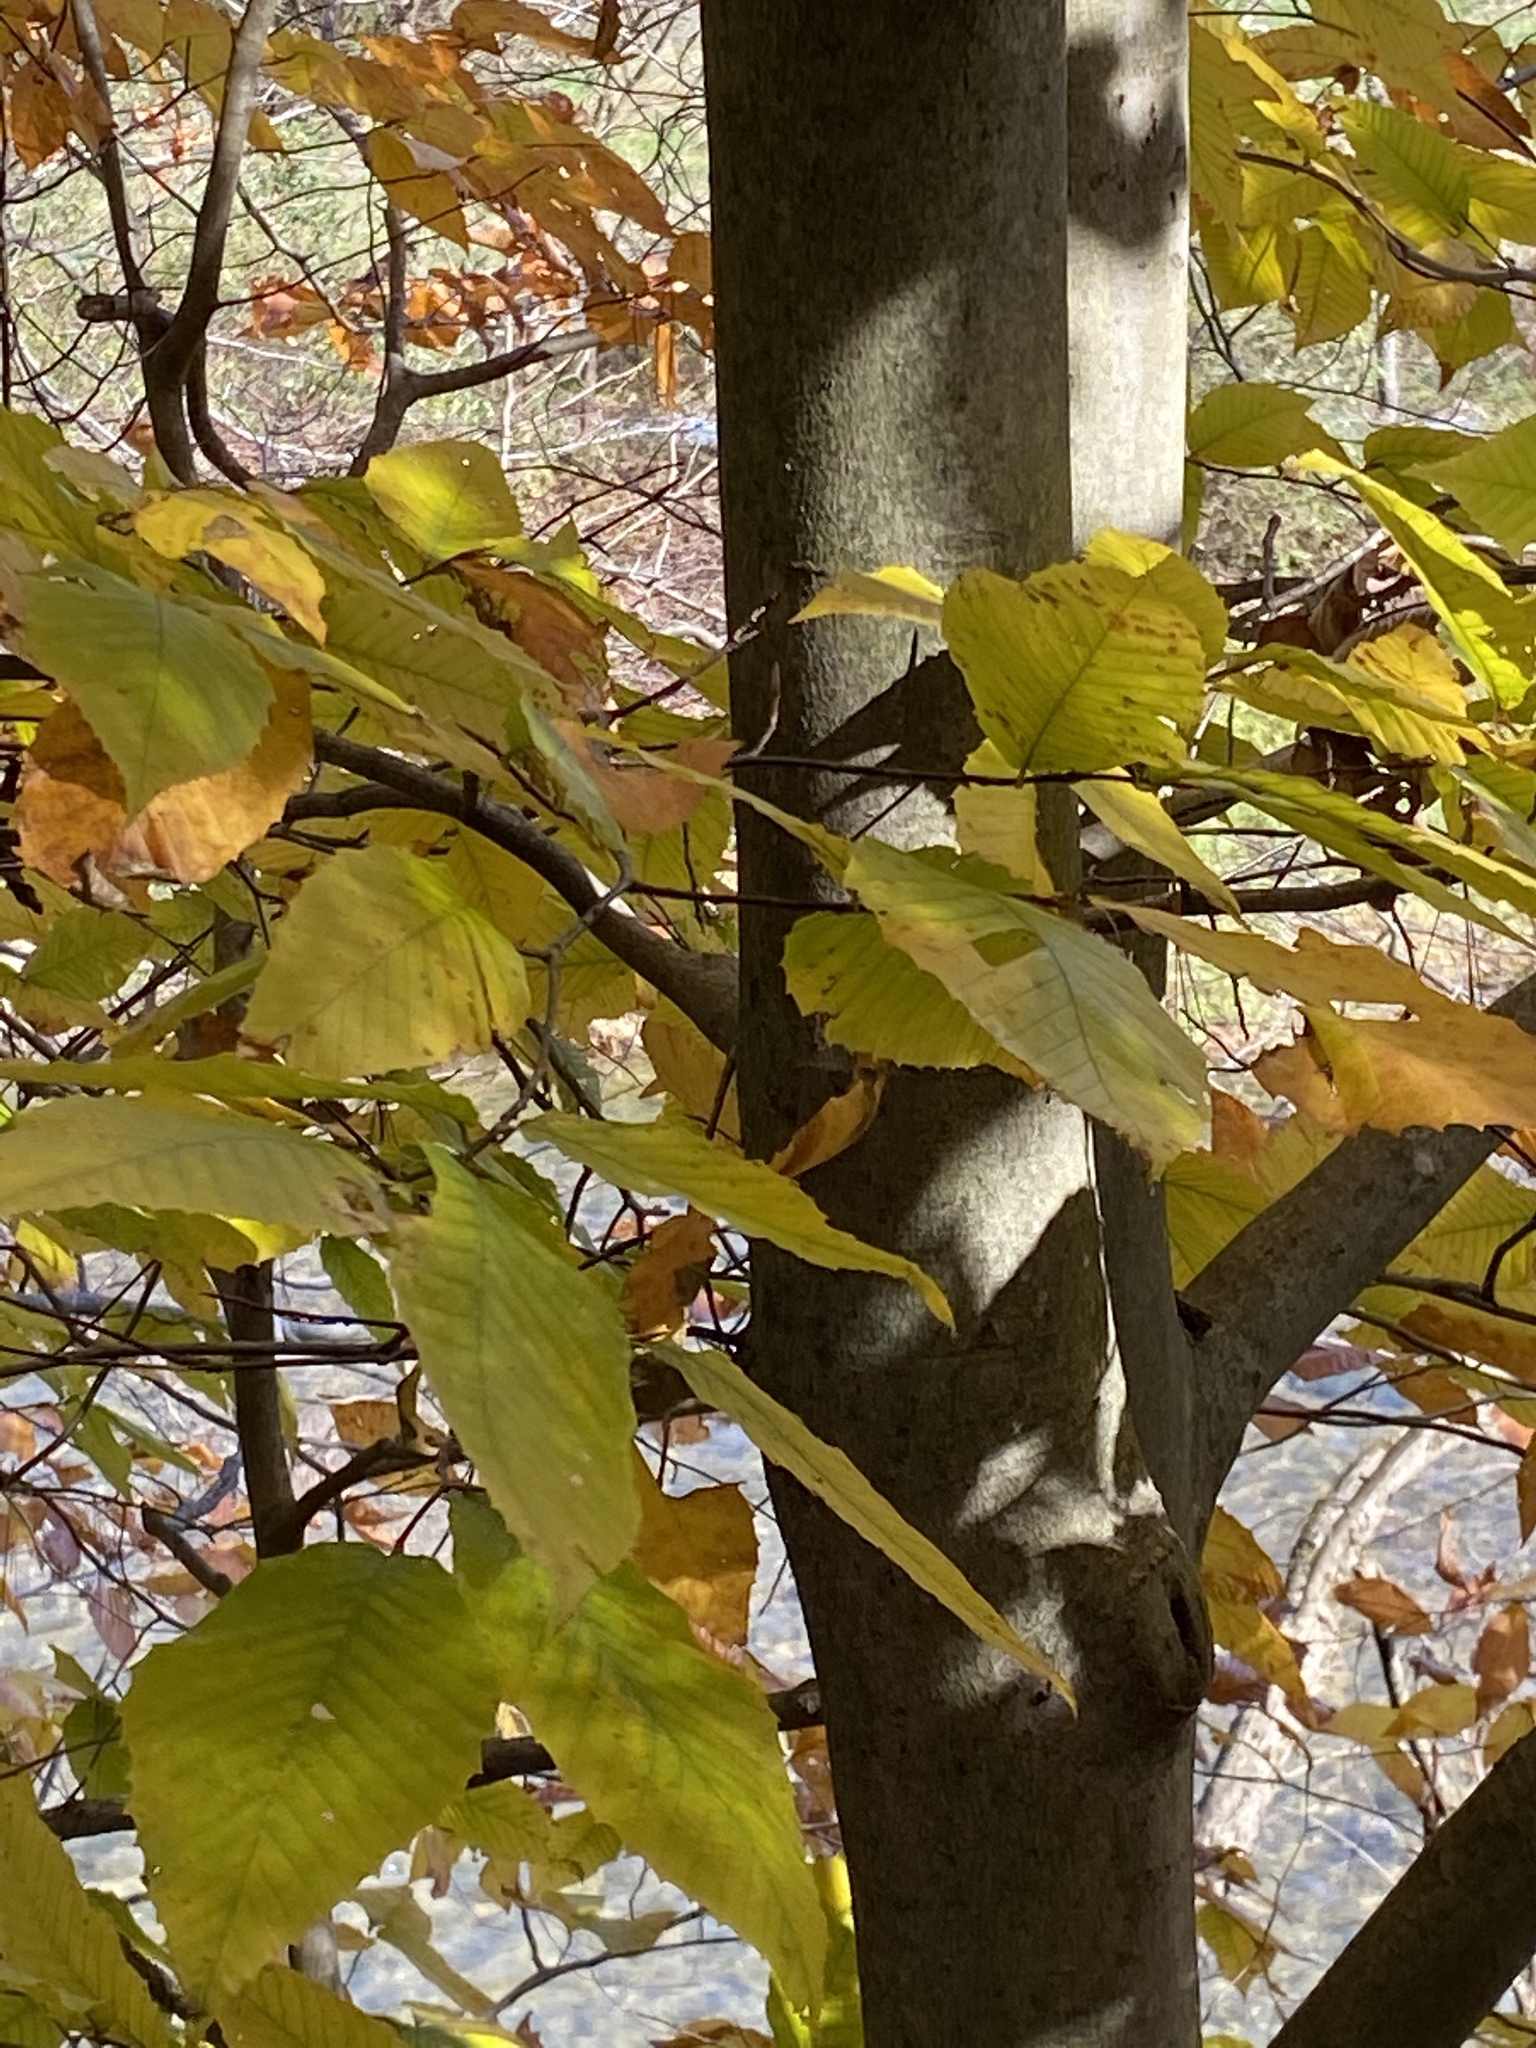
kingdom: Plantae
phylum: Tracheophyta
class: Magnoliopsida
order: Fagales
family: Fagaceae
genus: Fagus
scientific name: Fagus grandifolia
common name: American beech
